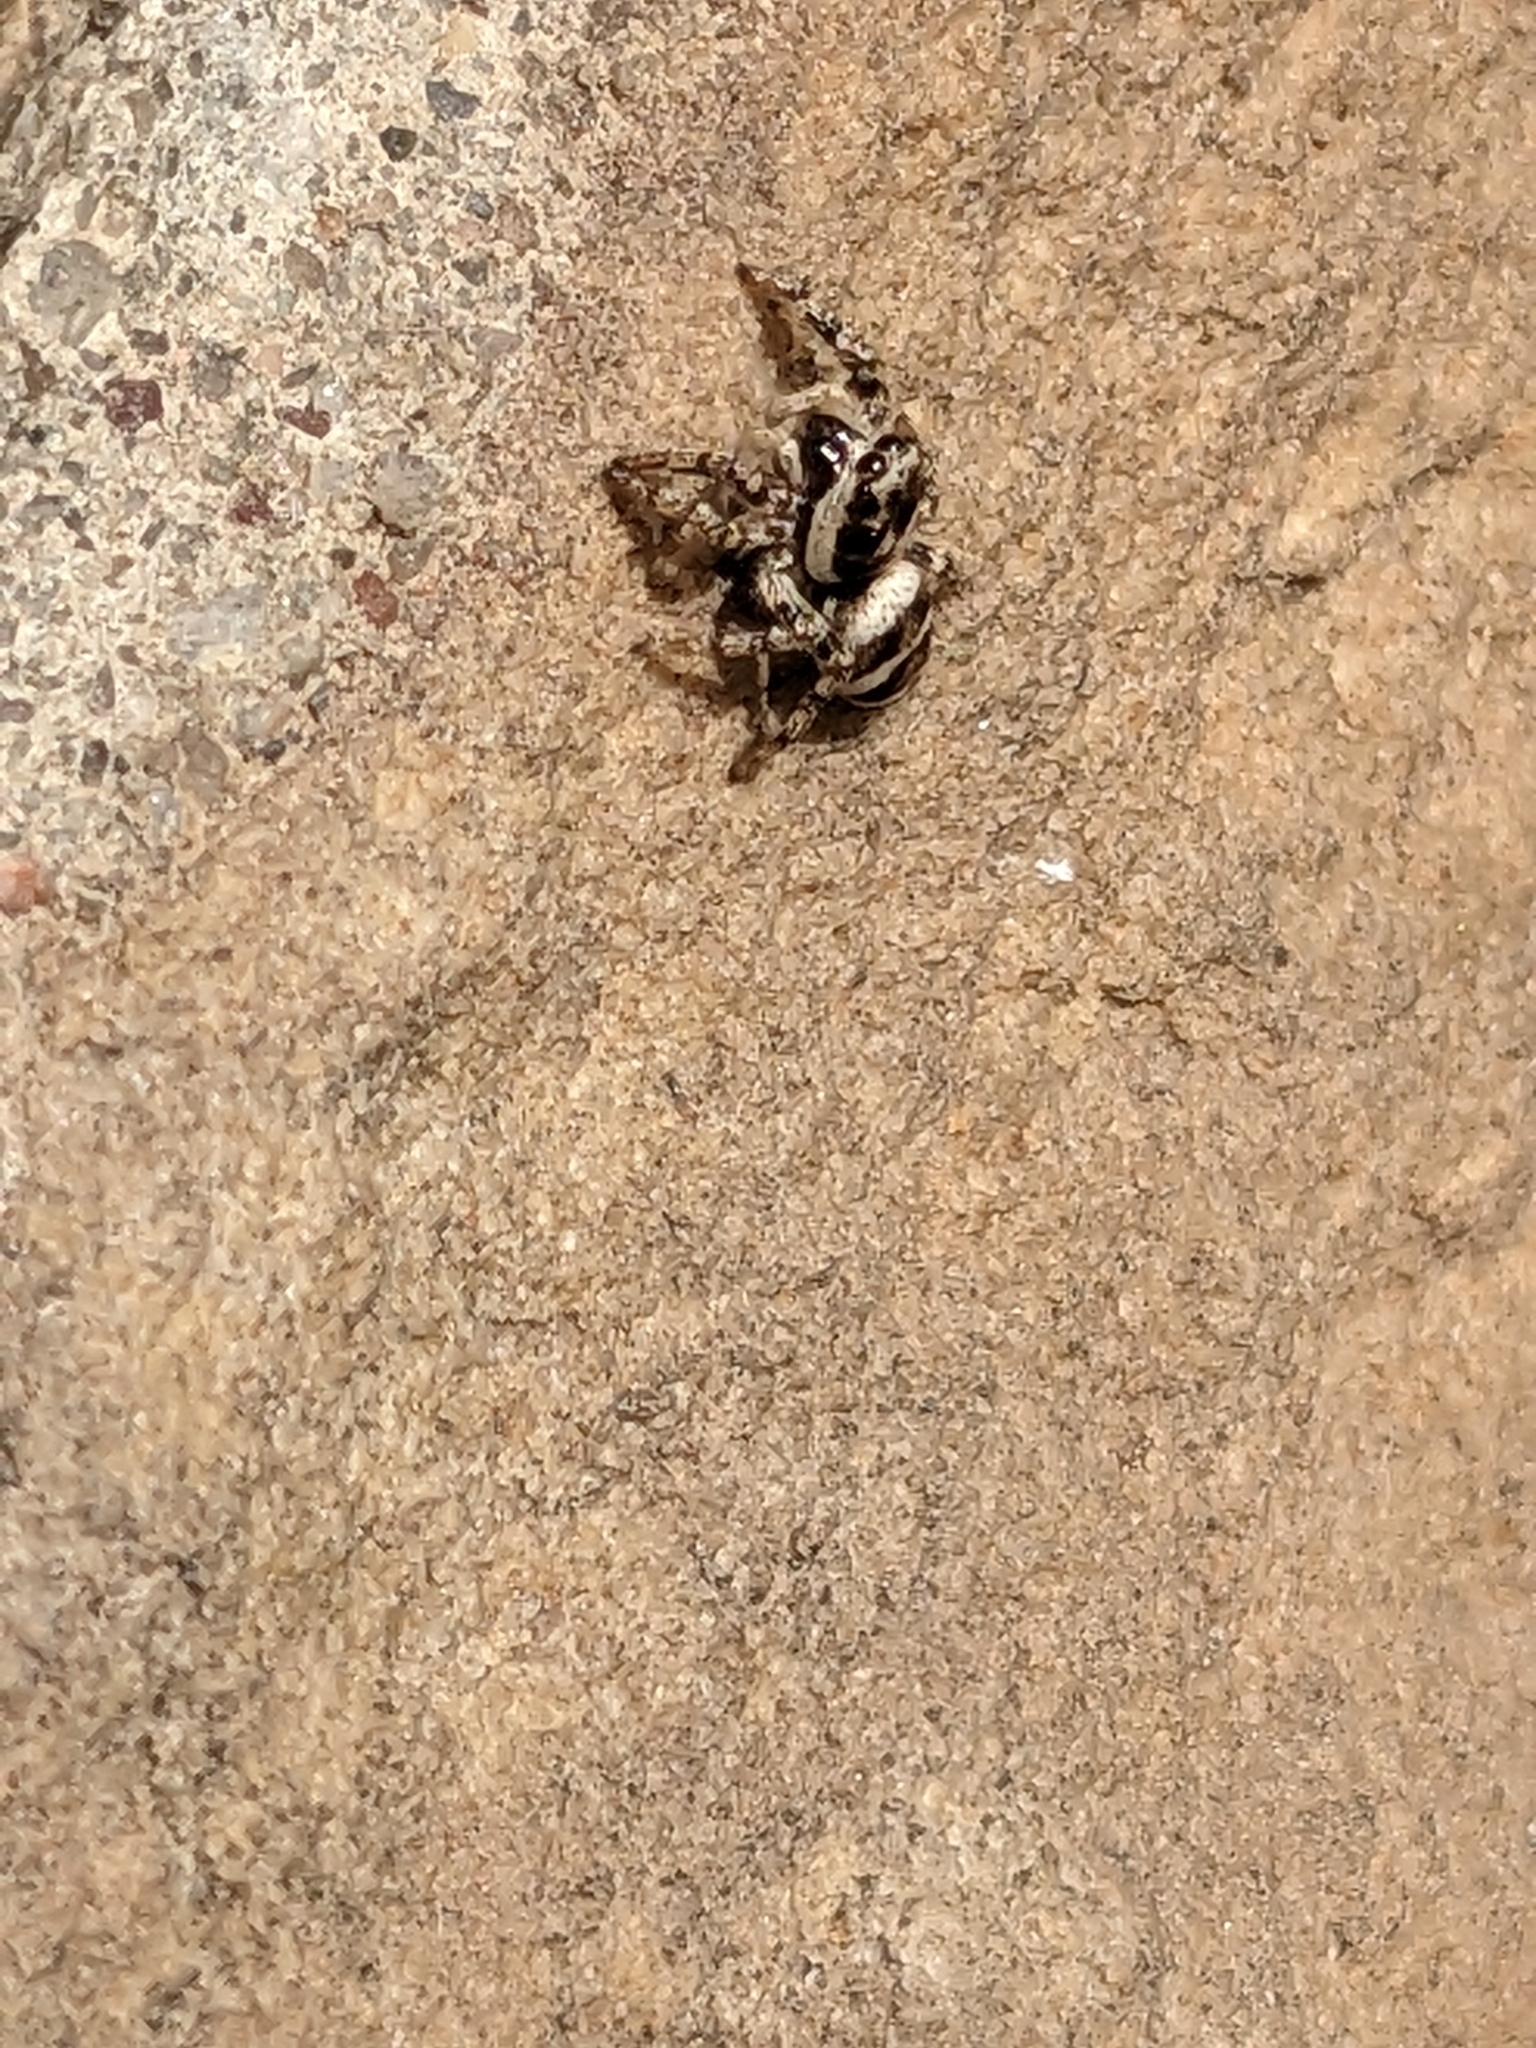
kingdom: Animalia
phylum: Arthropoda
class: Arachnida
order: Araneae
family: Salticidae
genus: Salticus
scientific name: Salticus scenicus
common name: Zebra jumper
